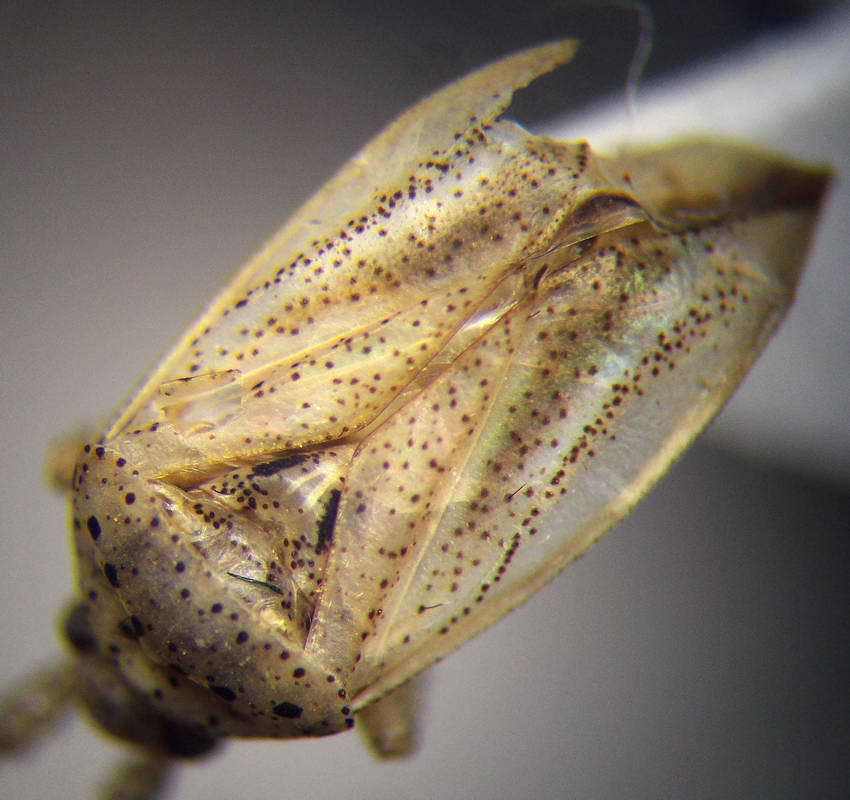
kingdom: Animalia
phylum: Arthropoda
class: Insecta
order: Hemiptera
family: Miridae
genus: Oncotylus
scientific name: Oncotylus setulosus
